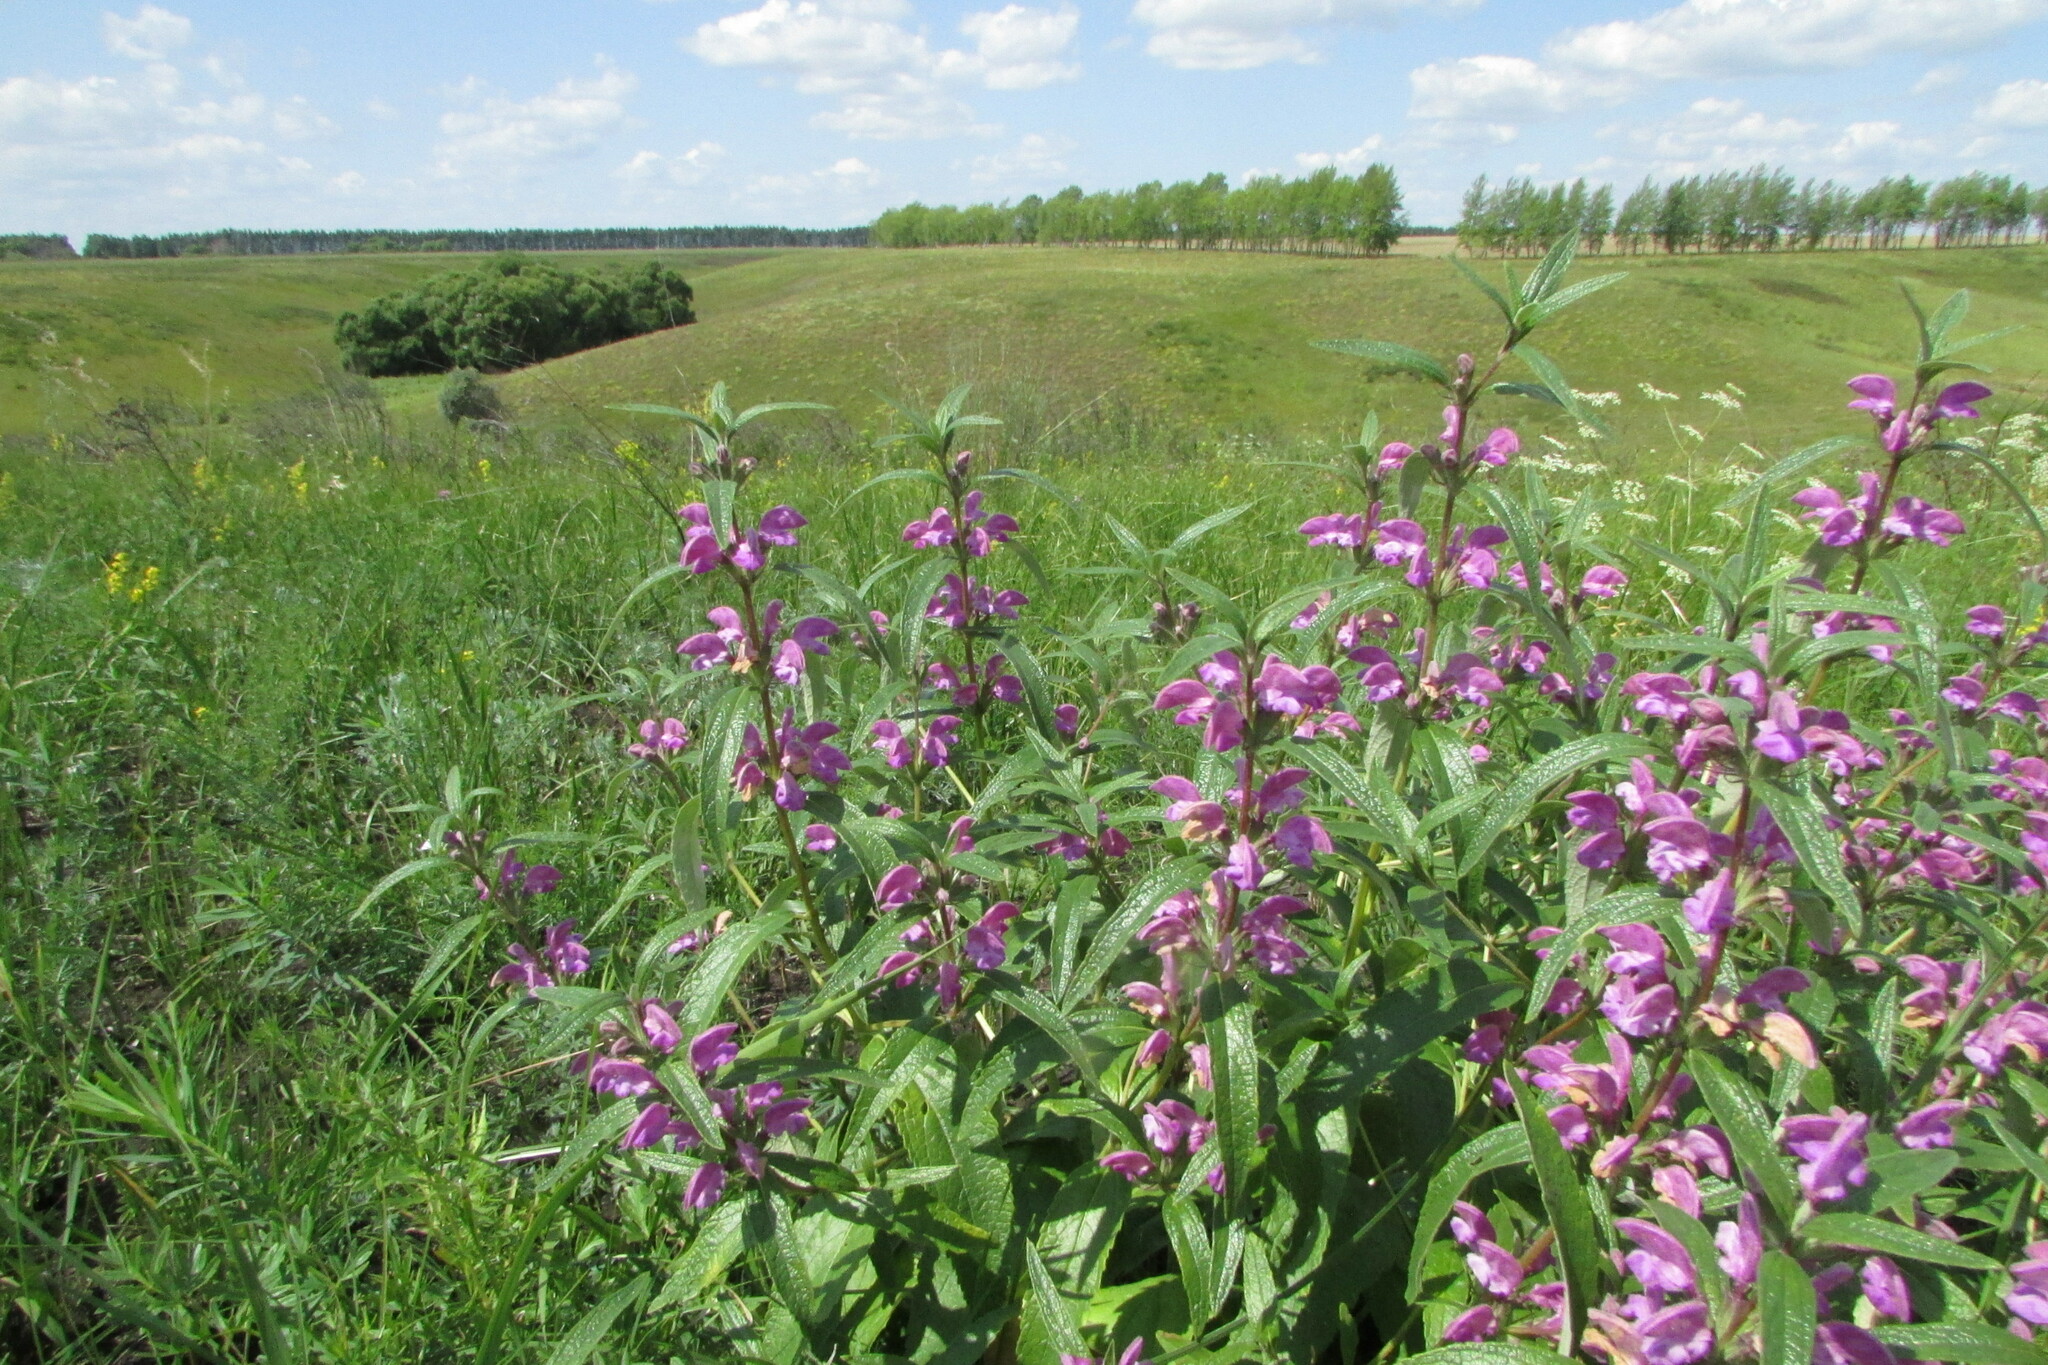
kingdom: Plantae
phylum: Tracheophyta
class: Magnoliopsida
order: Lamiales
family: Lamiaceae
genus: Phlomis
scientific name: Phlomis herba-venti
